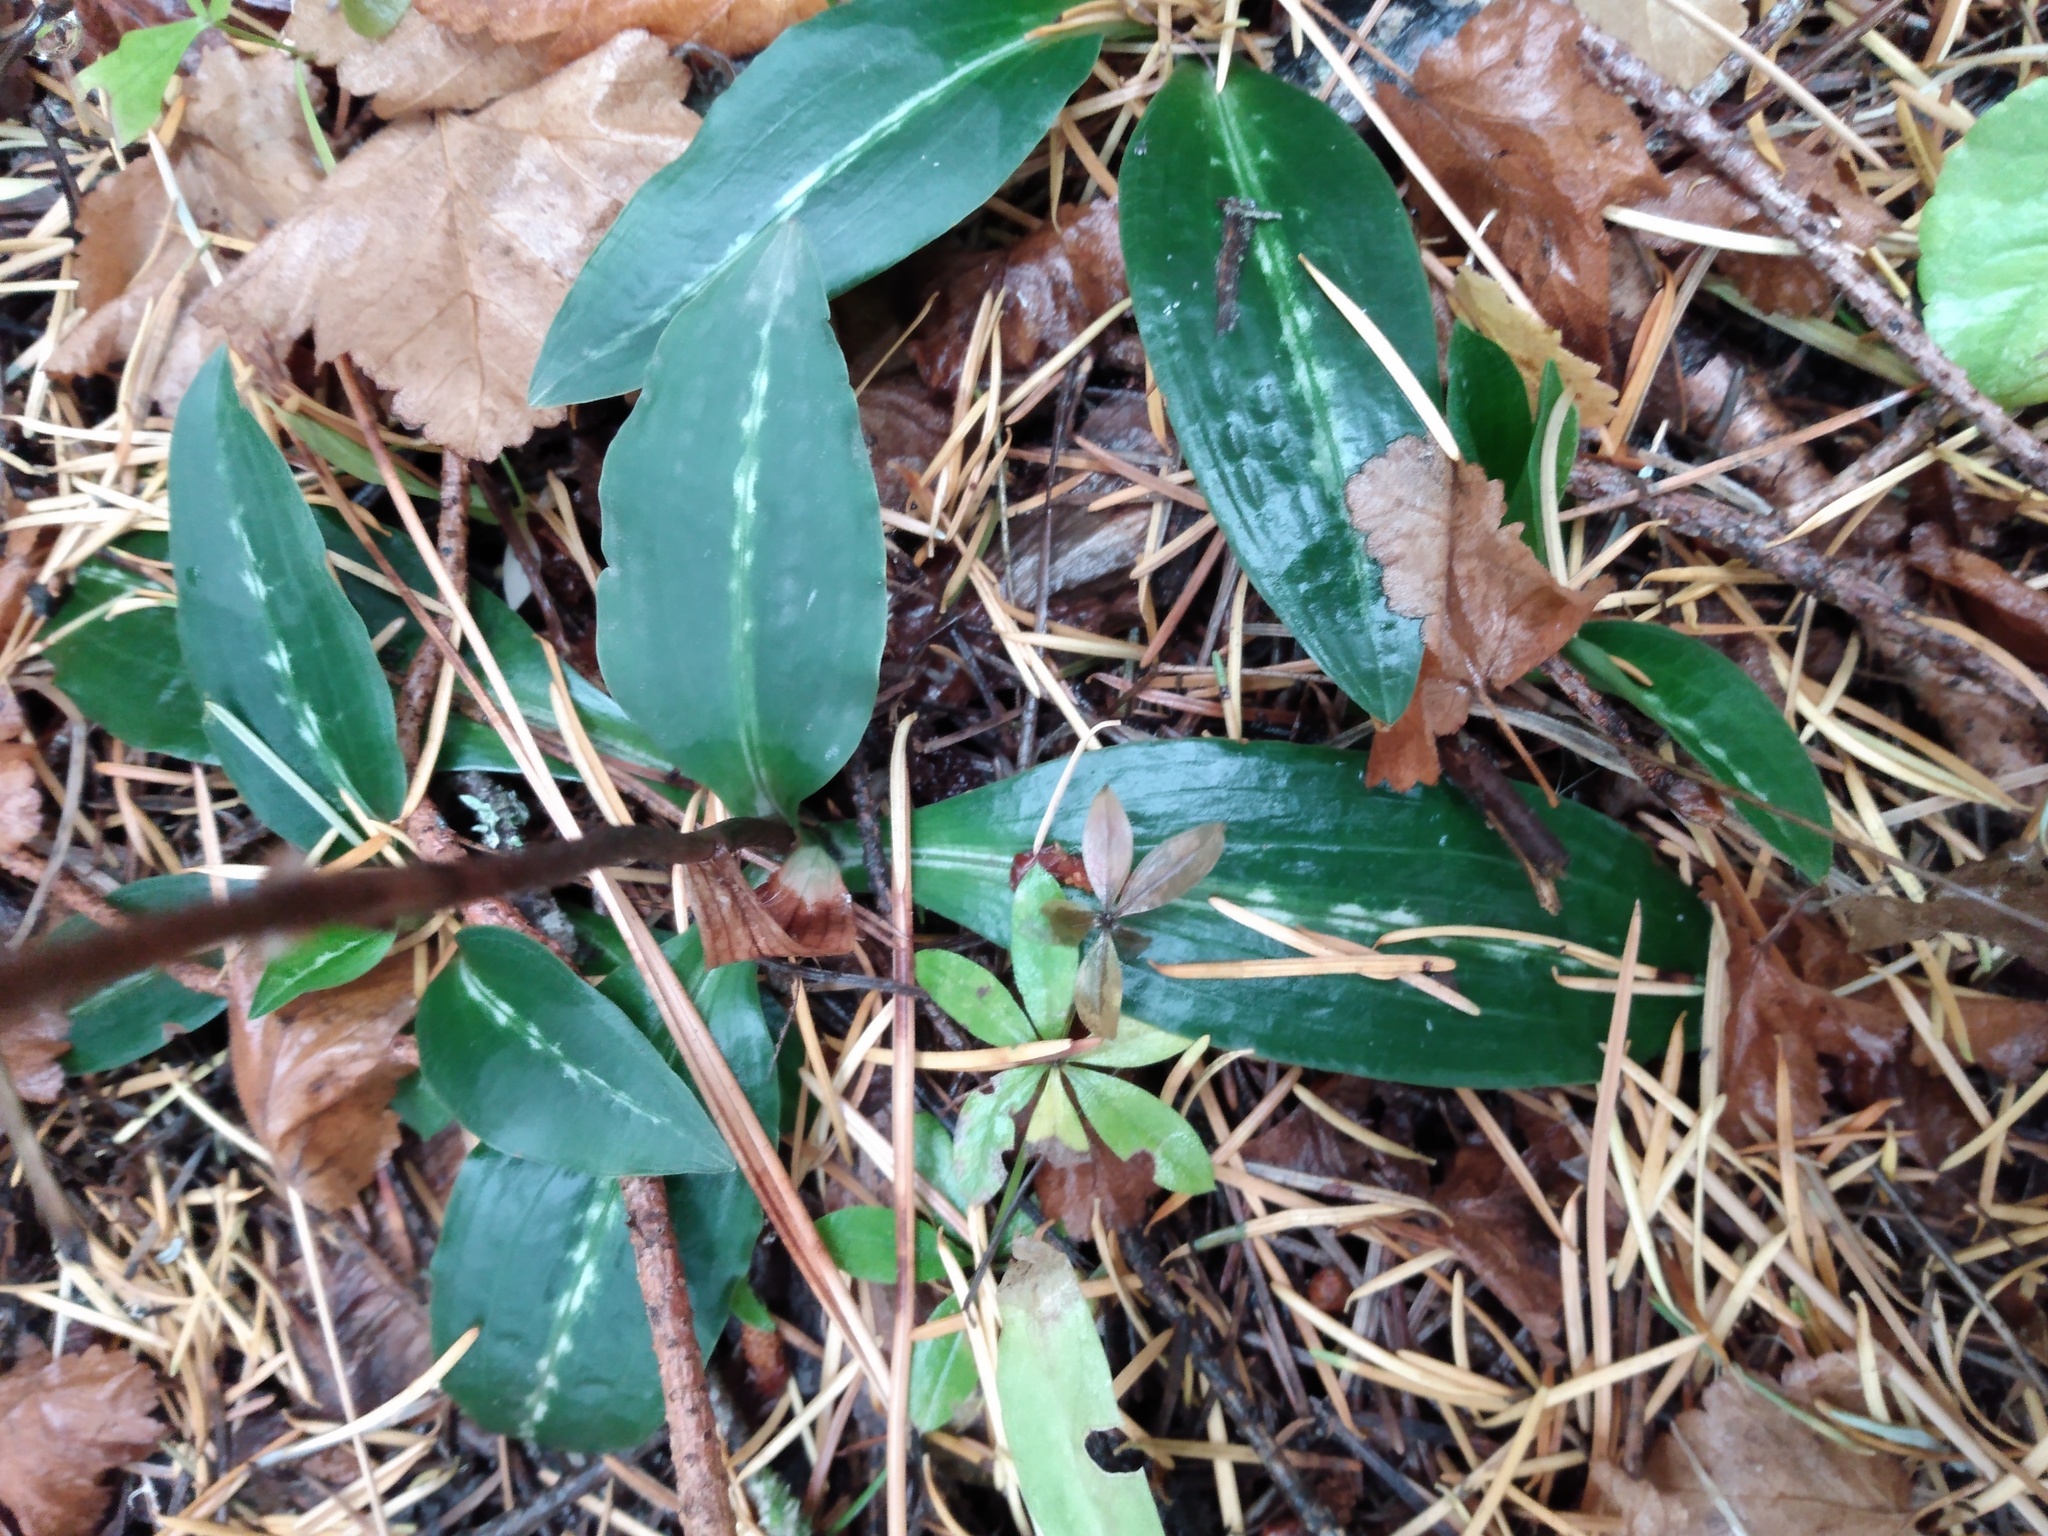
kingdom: Plantae
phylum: Tracheophyta
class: Liliopsida
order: Asparagales
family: Orchidaceae
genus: Goodyera
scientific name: Goodyera oblongifolia
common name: Giant rattlesnake-plantain
